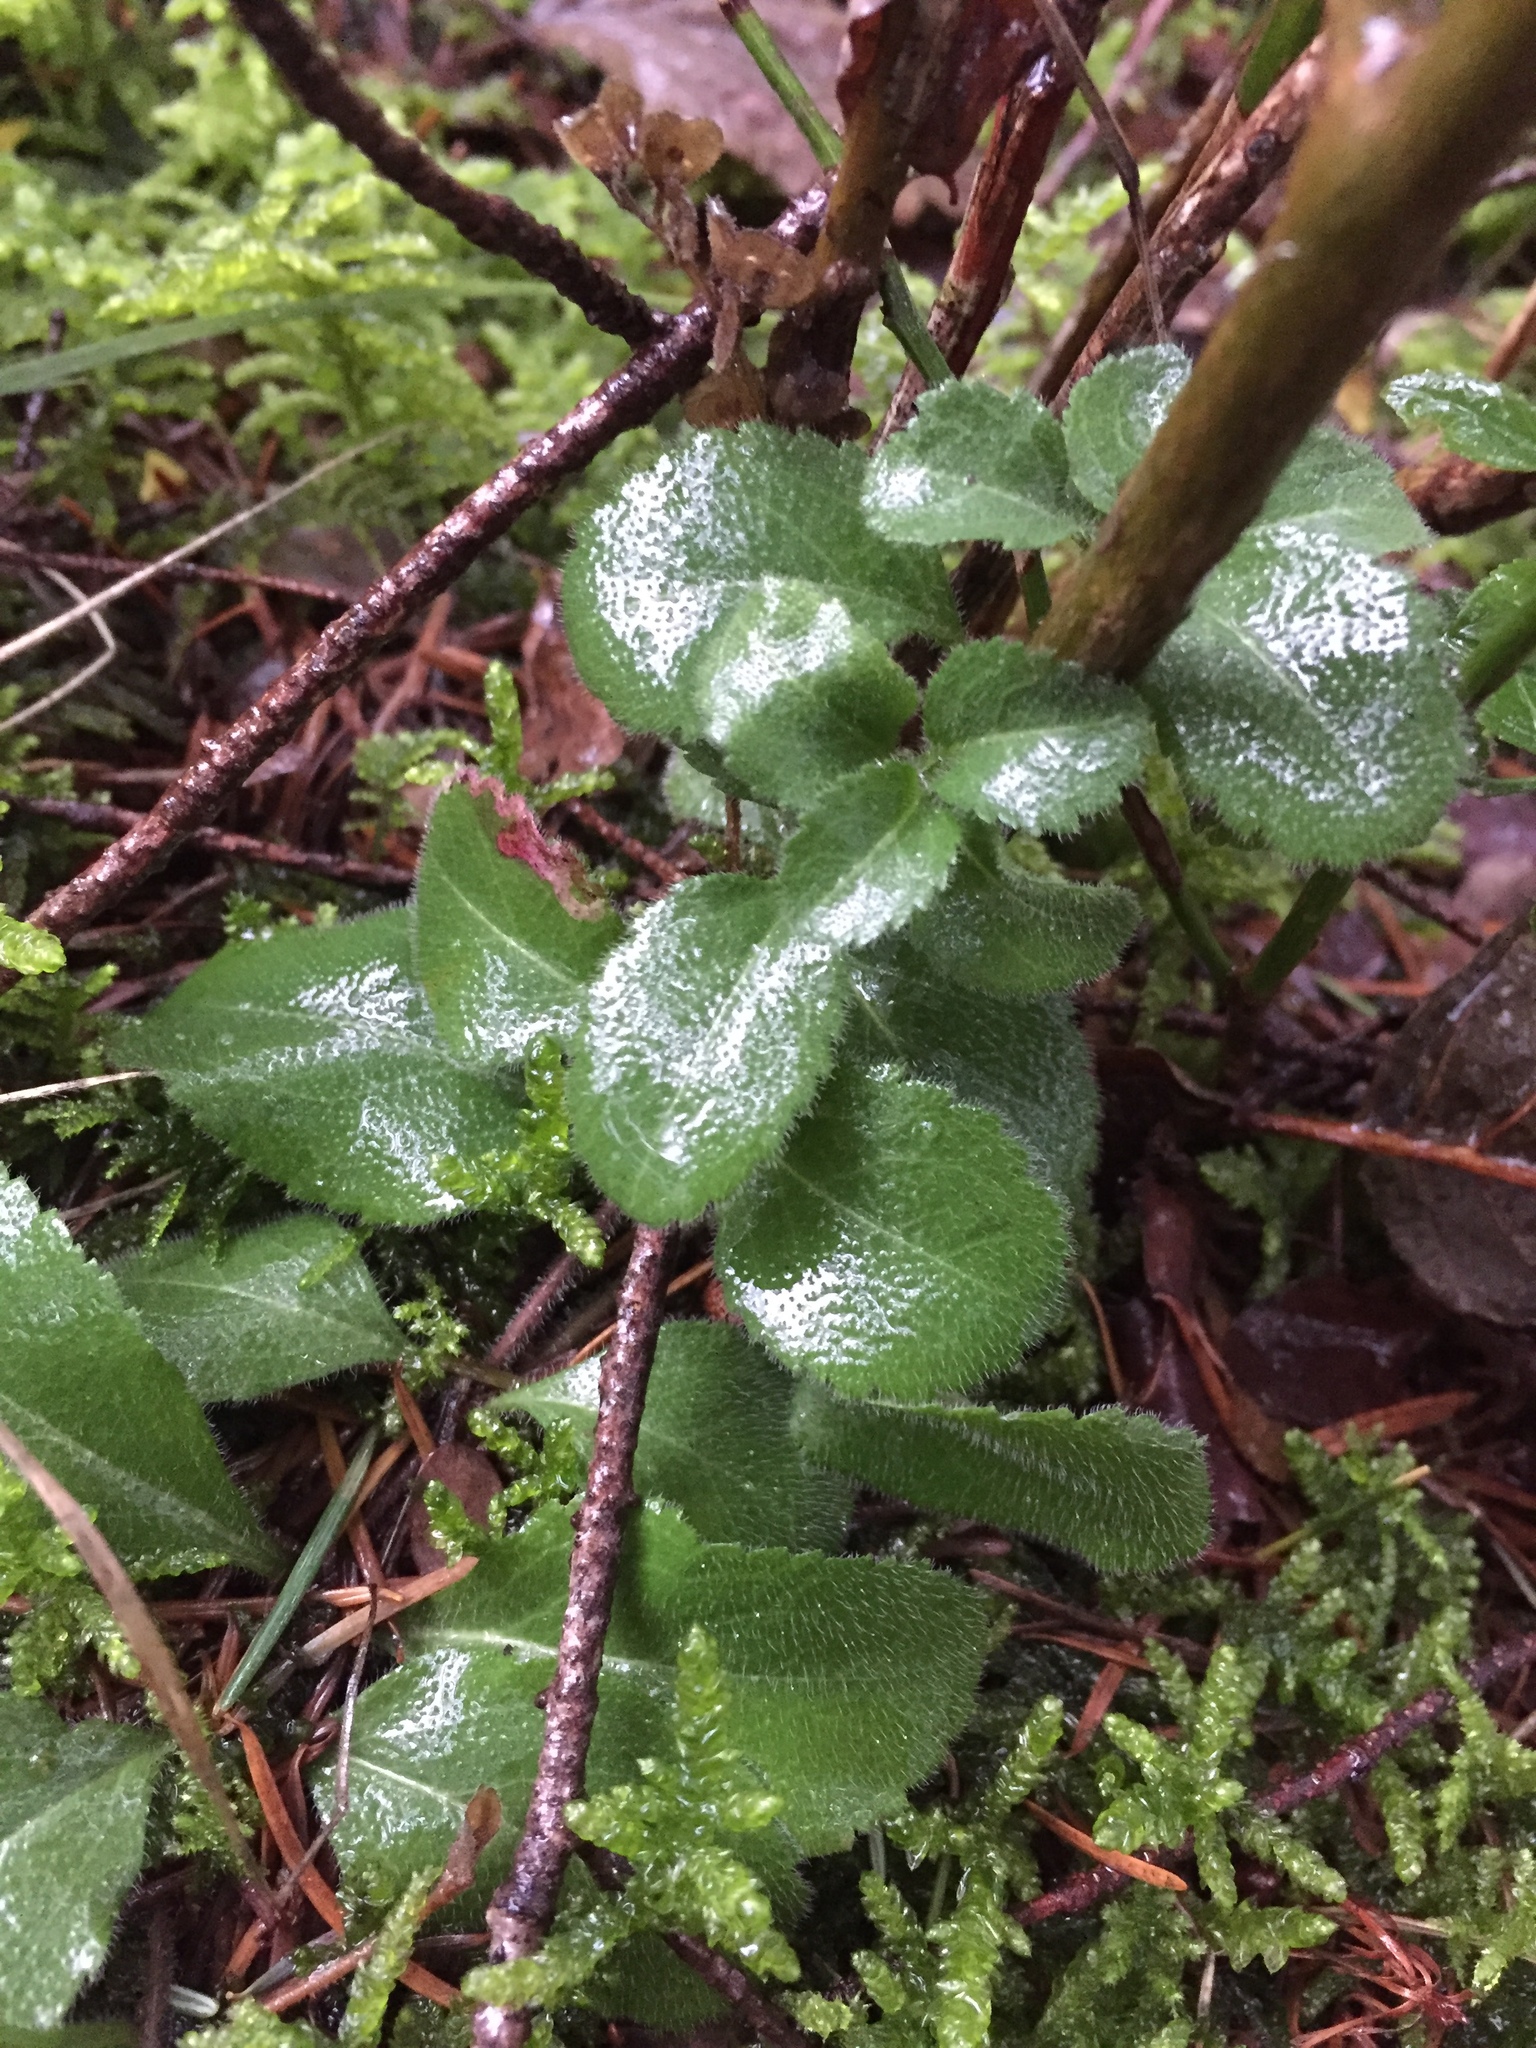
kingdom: Plantae
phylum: Tracheophyta
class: Magnoliopsida
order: Lamiales
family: Plantaginaceae
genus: Veronica
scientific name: Veronica officinalis
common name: Common speedwell
